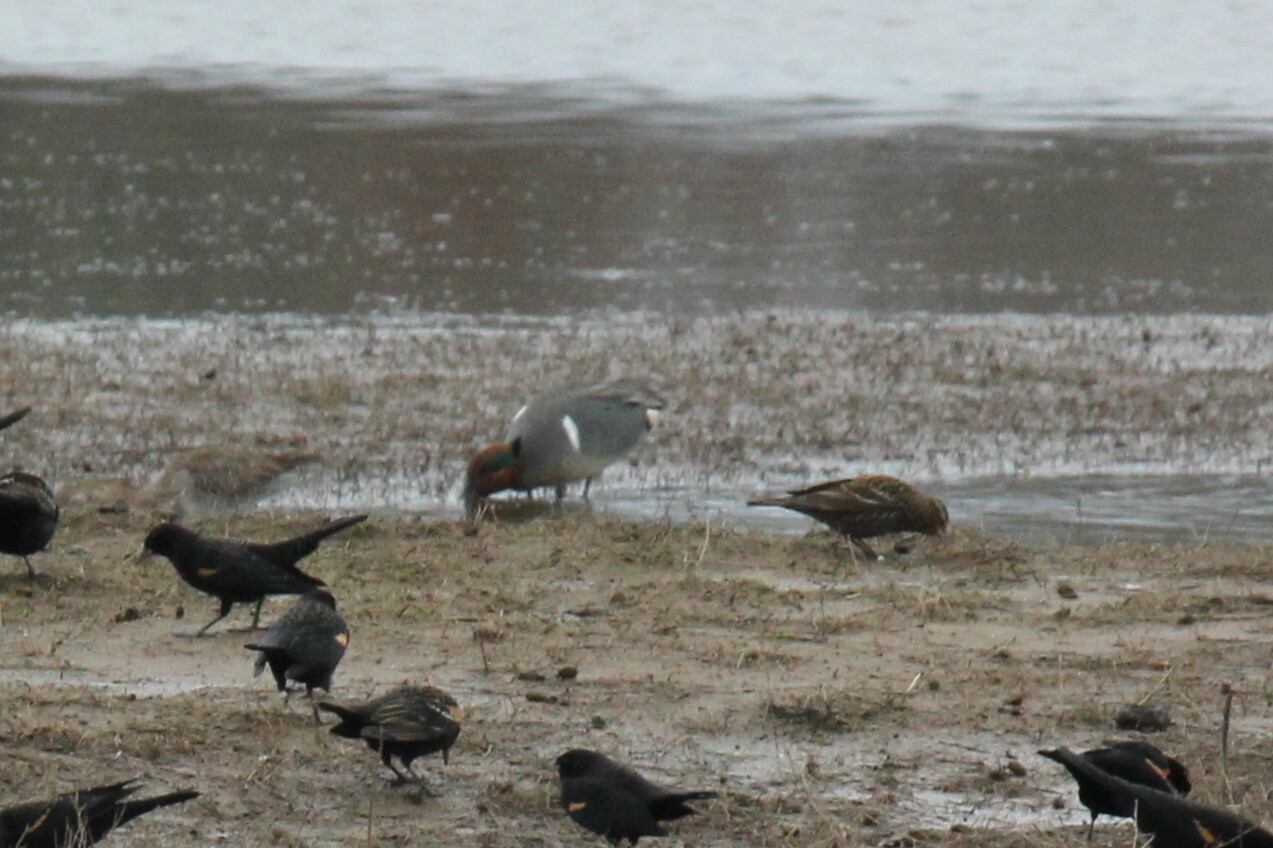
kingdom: Animalia
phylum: Chordata
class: Aves
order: Anseriformes
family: Anatidae
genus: Anas
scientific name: Anas crecca
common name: Eurasian teal
